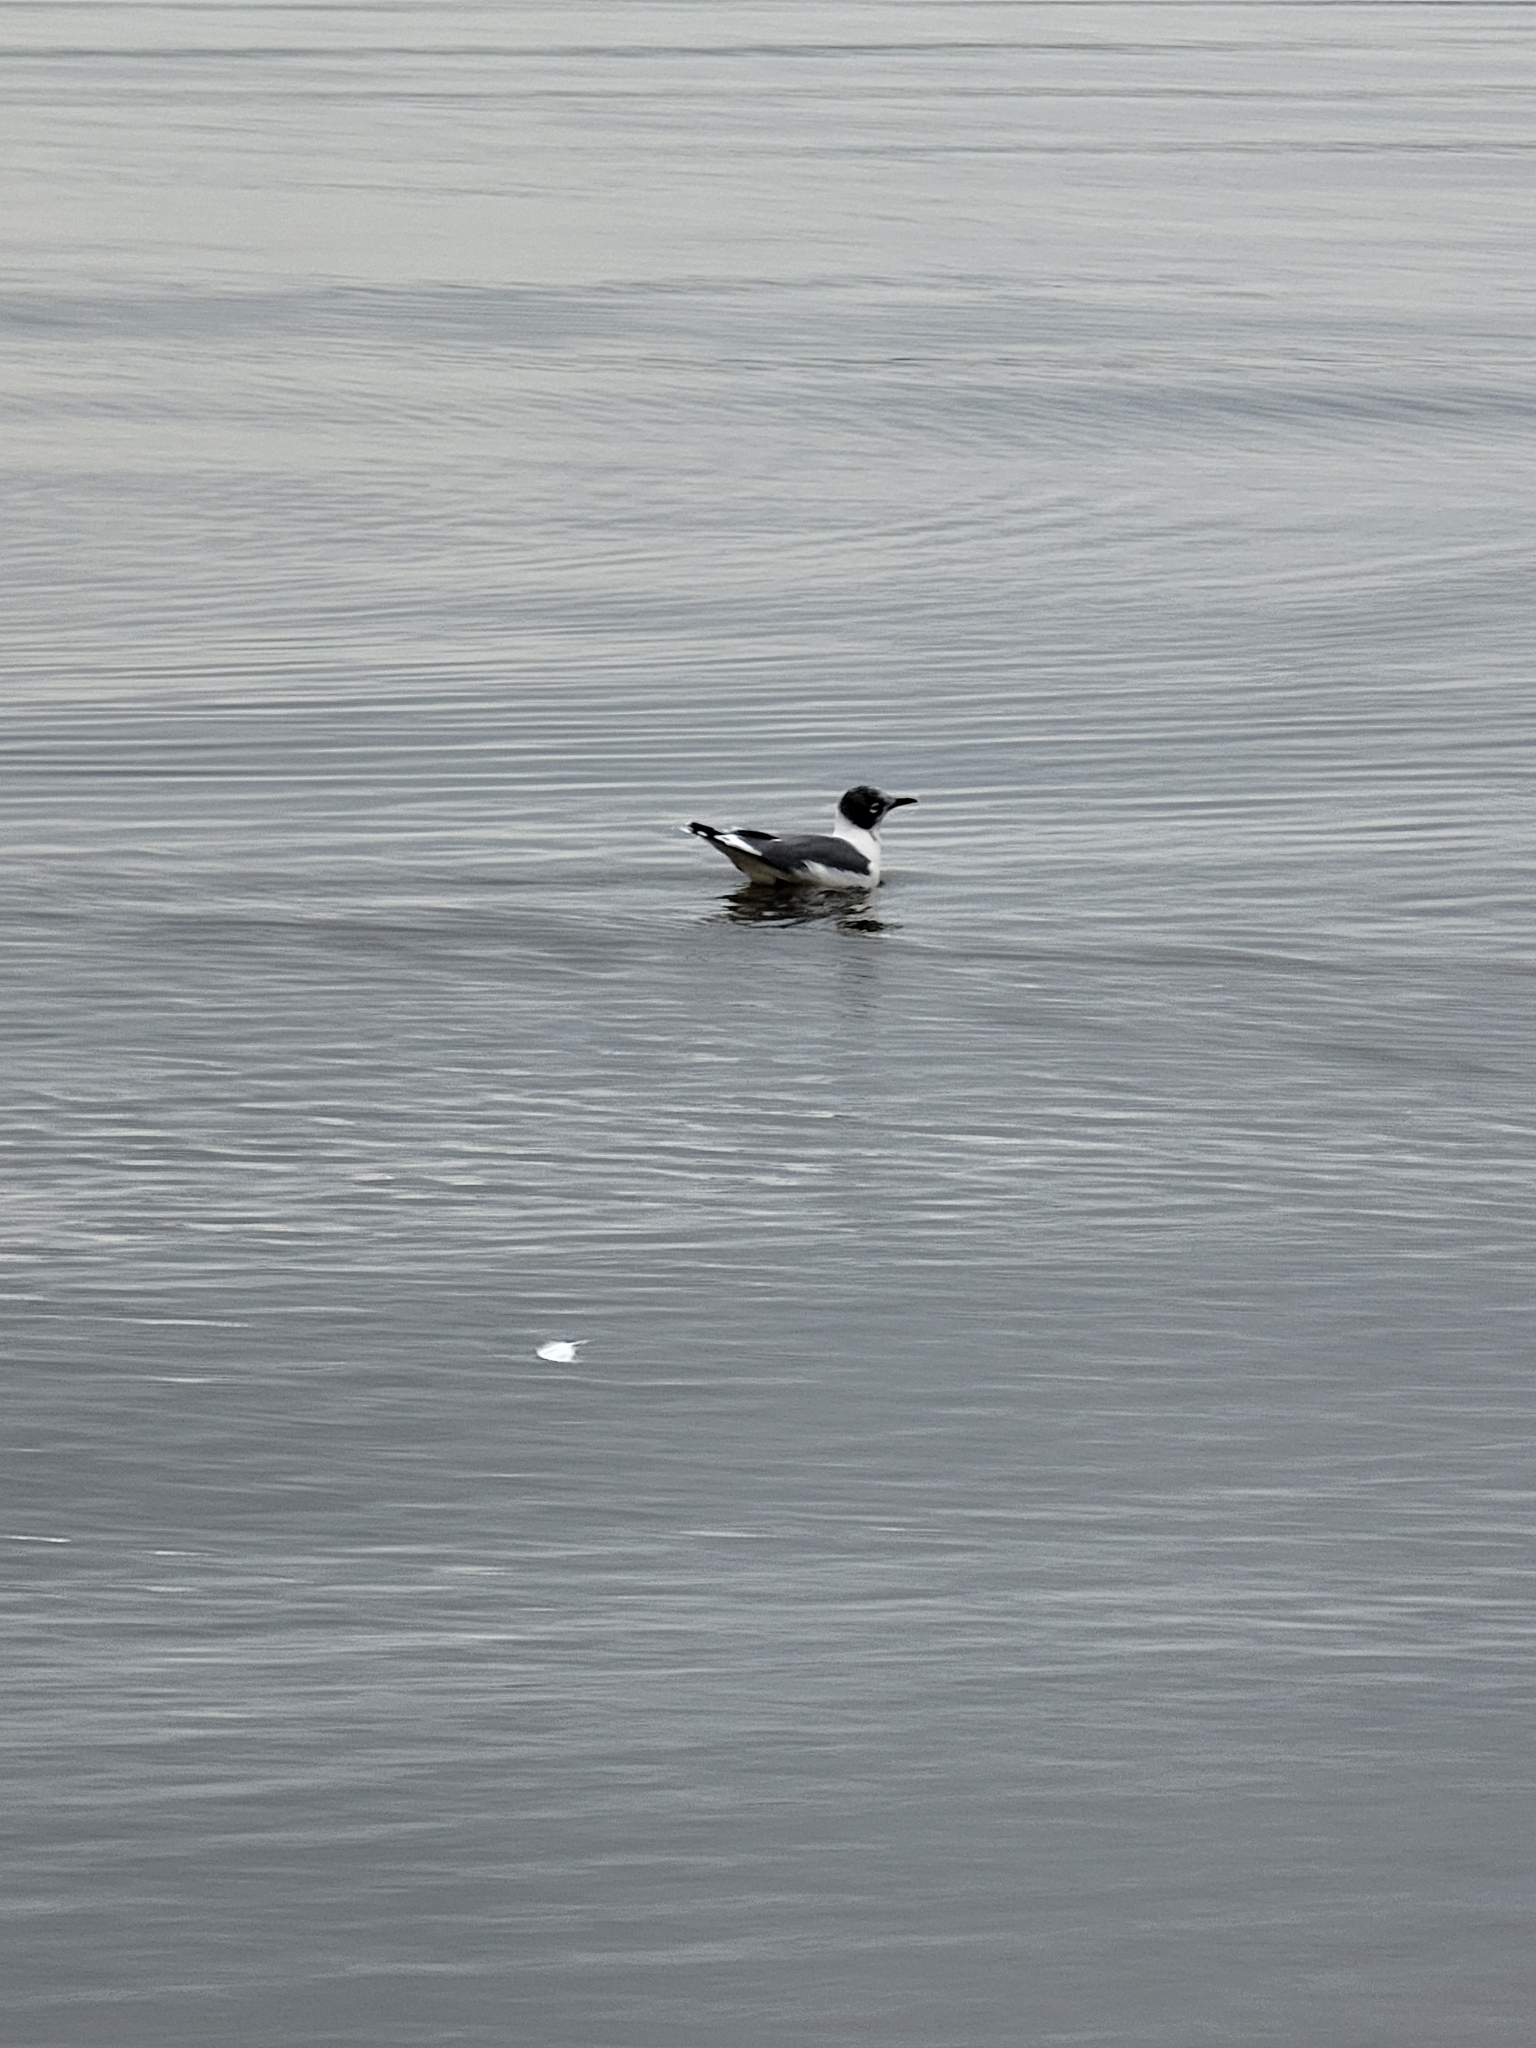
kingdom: Animalia
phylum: Chordata
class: Aves
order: Charadriiformes
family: Laridae
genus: Leucophaeus
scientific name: Leucophaeus pipixcan
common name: Franklin's gull
